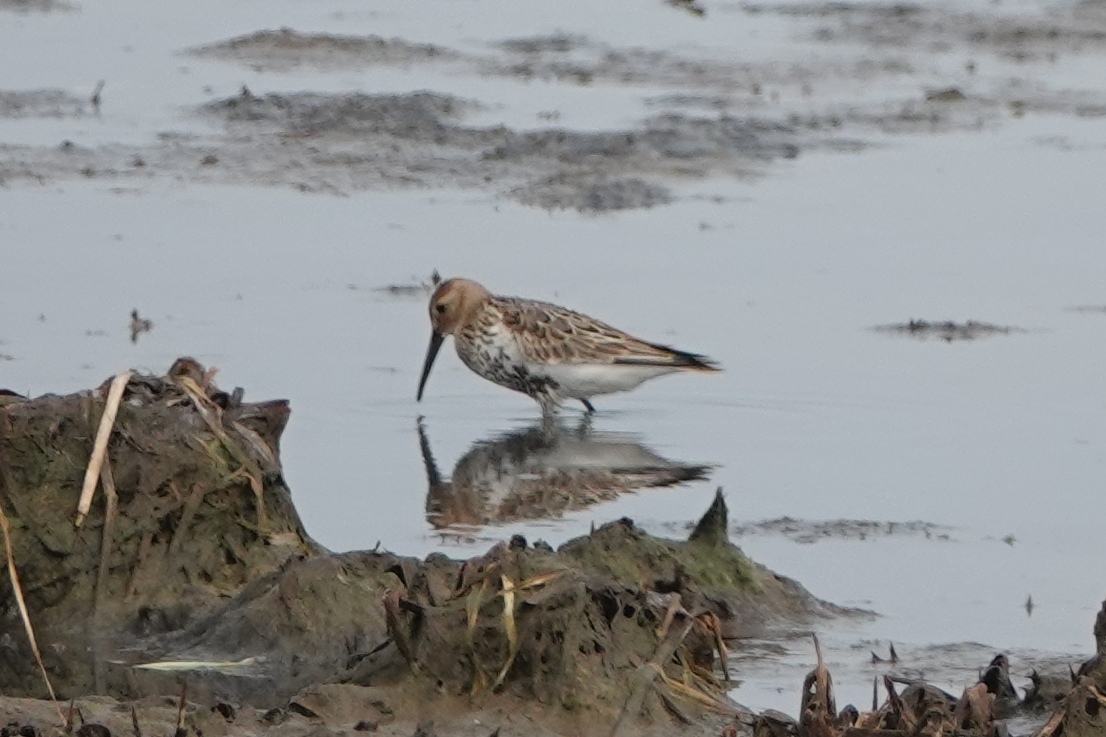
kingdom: Animalia
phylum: Chordata
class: Aves
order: Charadriiformes
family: Scolopacidae
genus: Calidris
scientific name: Calidris alpina
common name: Dunlin
